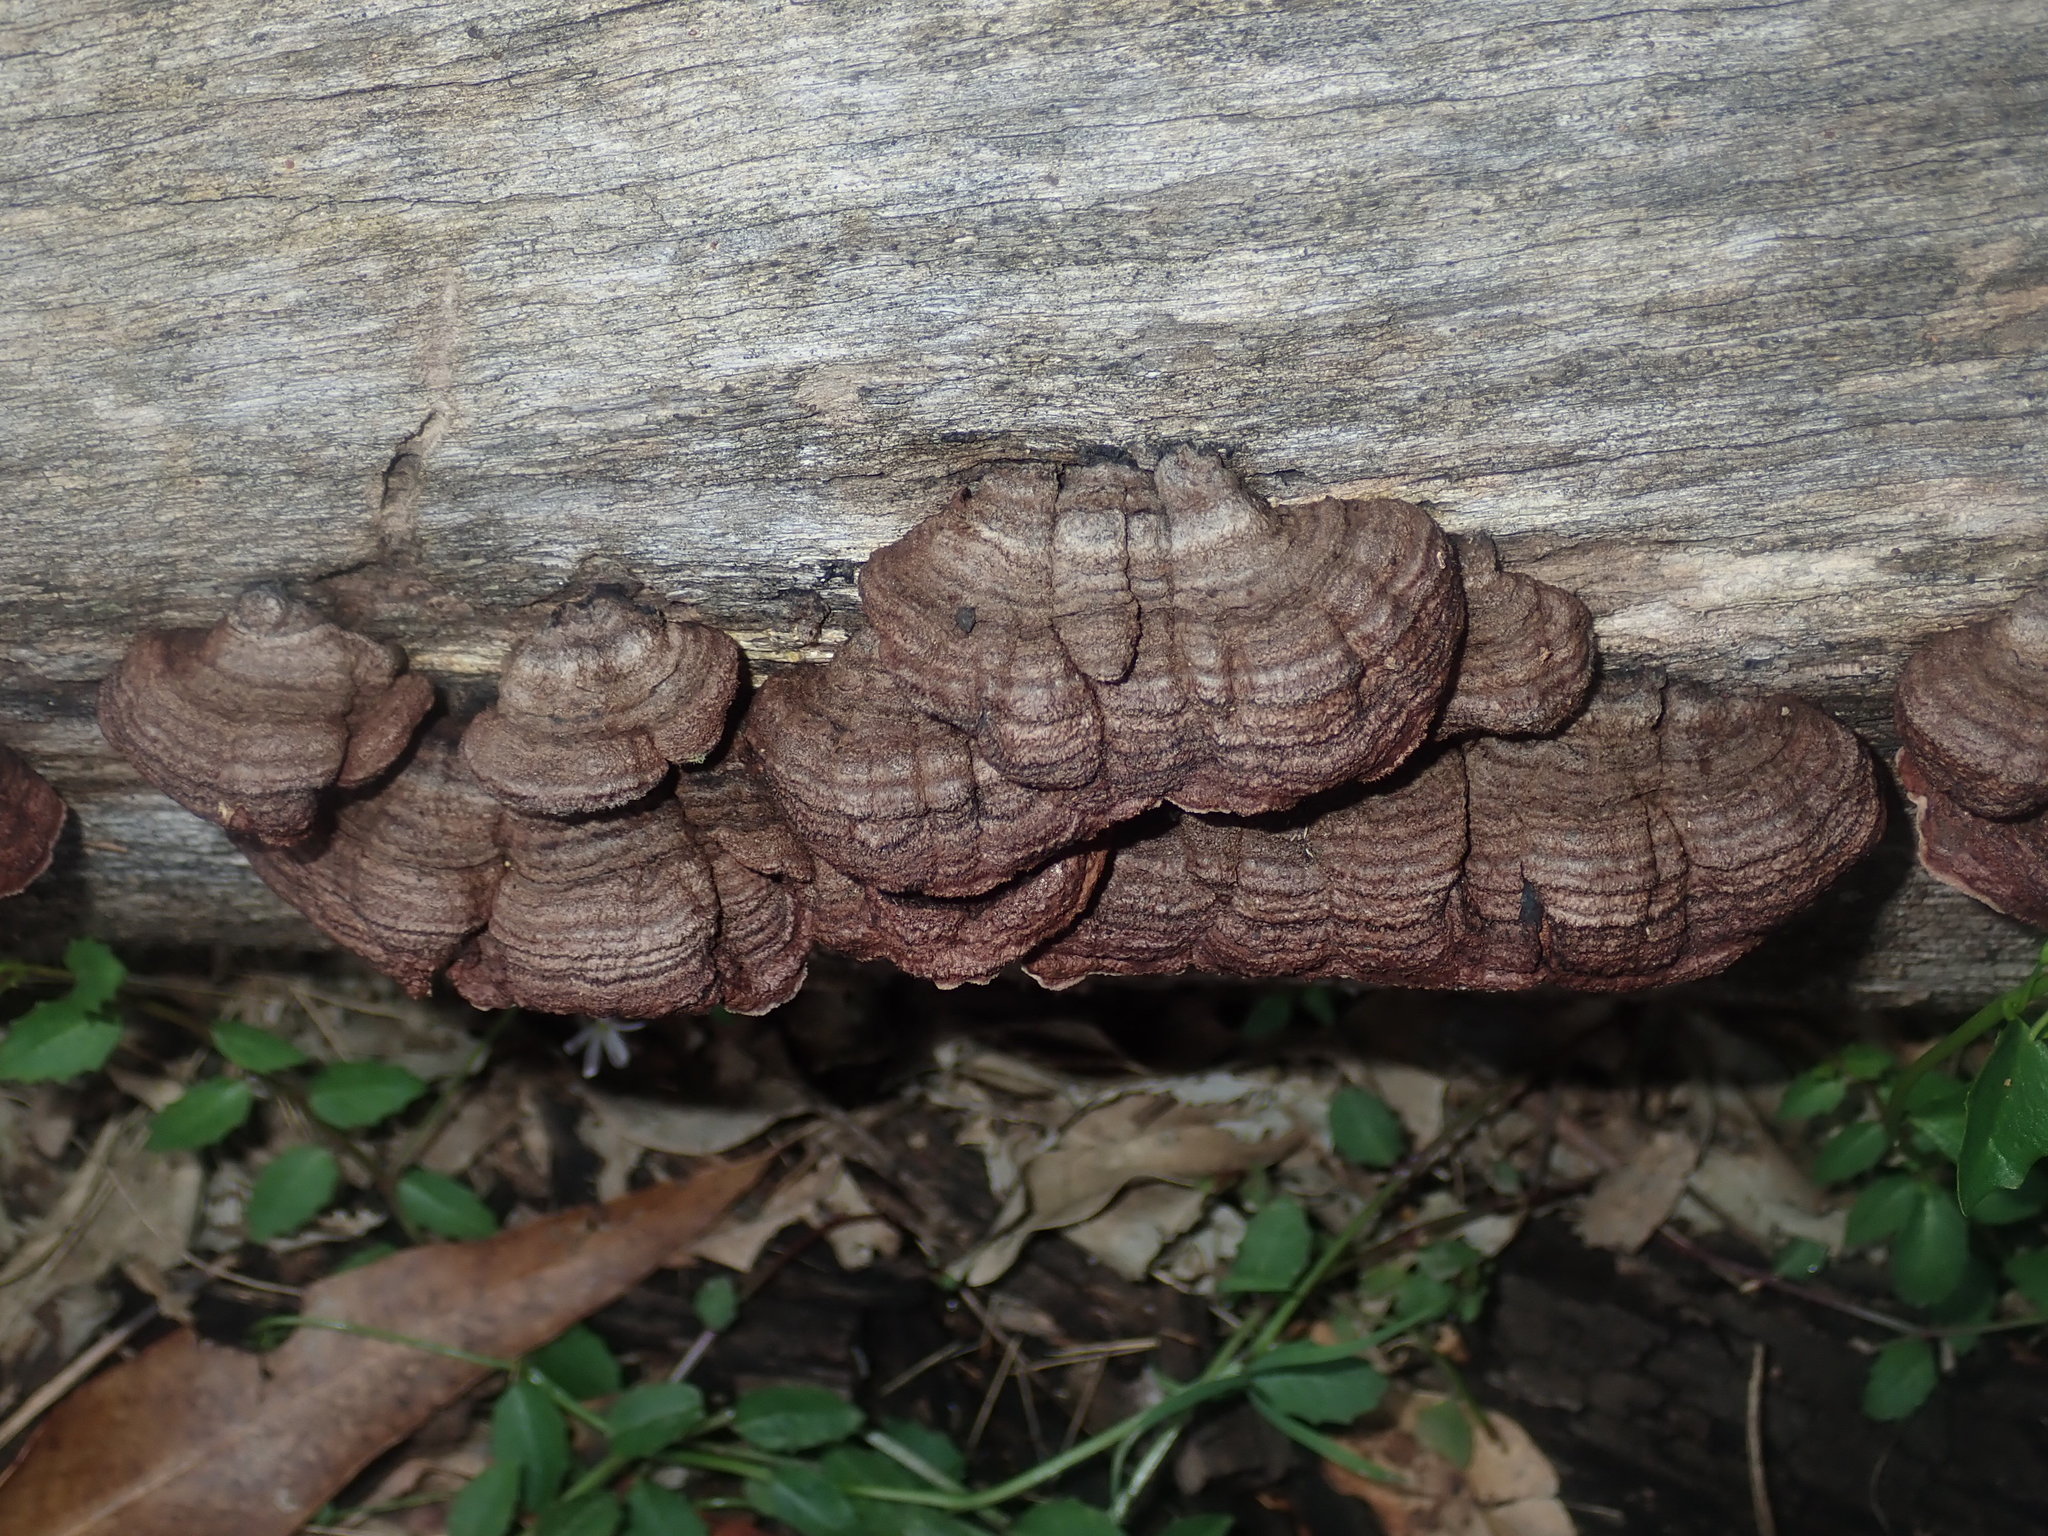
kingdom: Fungi
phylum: Basidiomycota
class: Agaricomycetes
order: Corticiales
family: Punctulariaceae
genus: Punctularia
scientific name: Punctularia strigosozonata
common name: White-rot fungus
